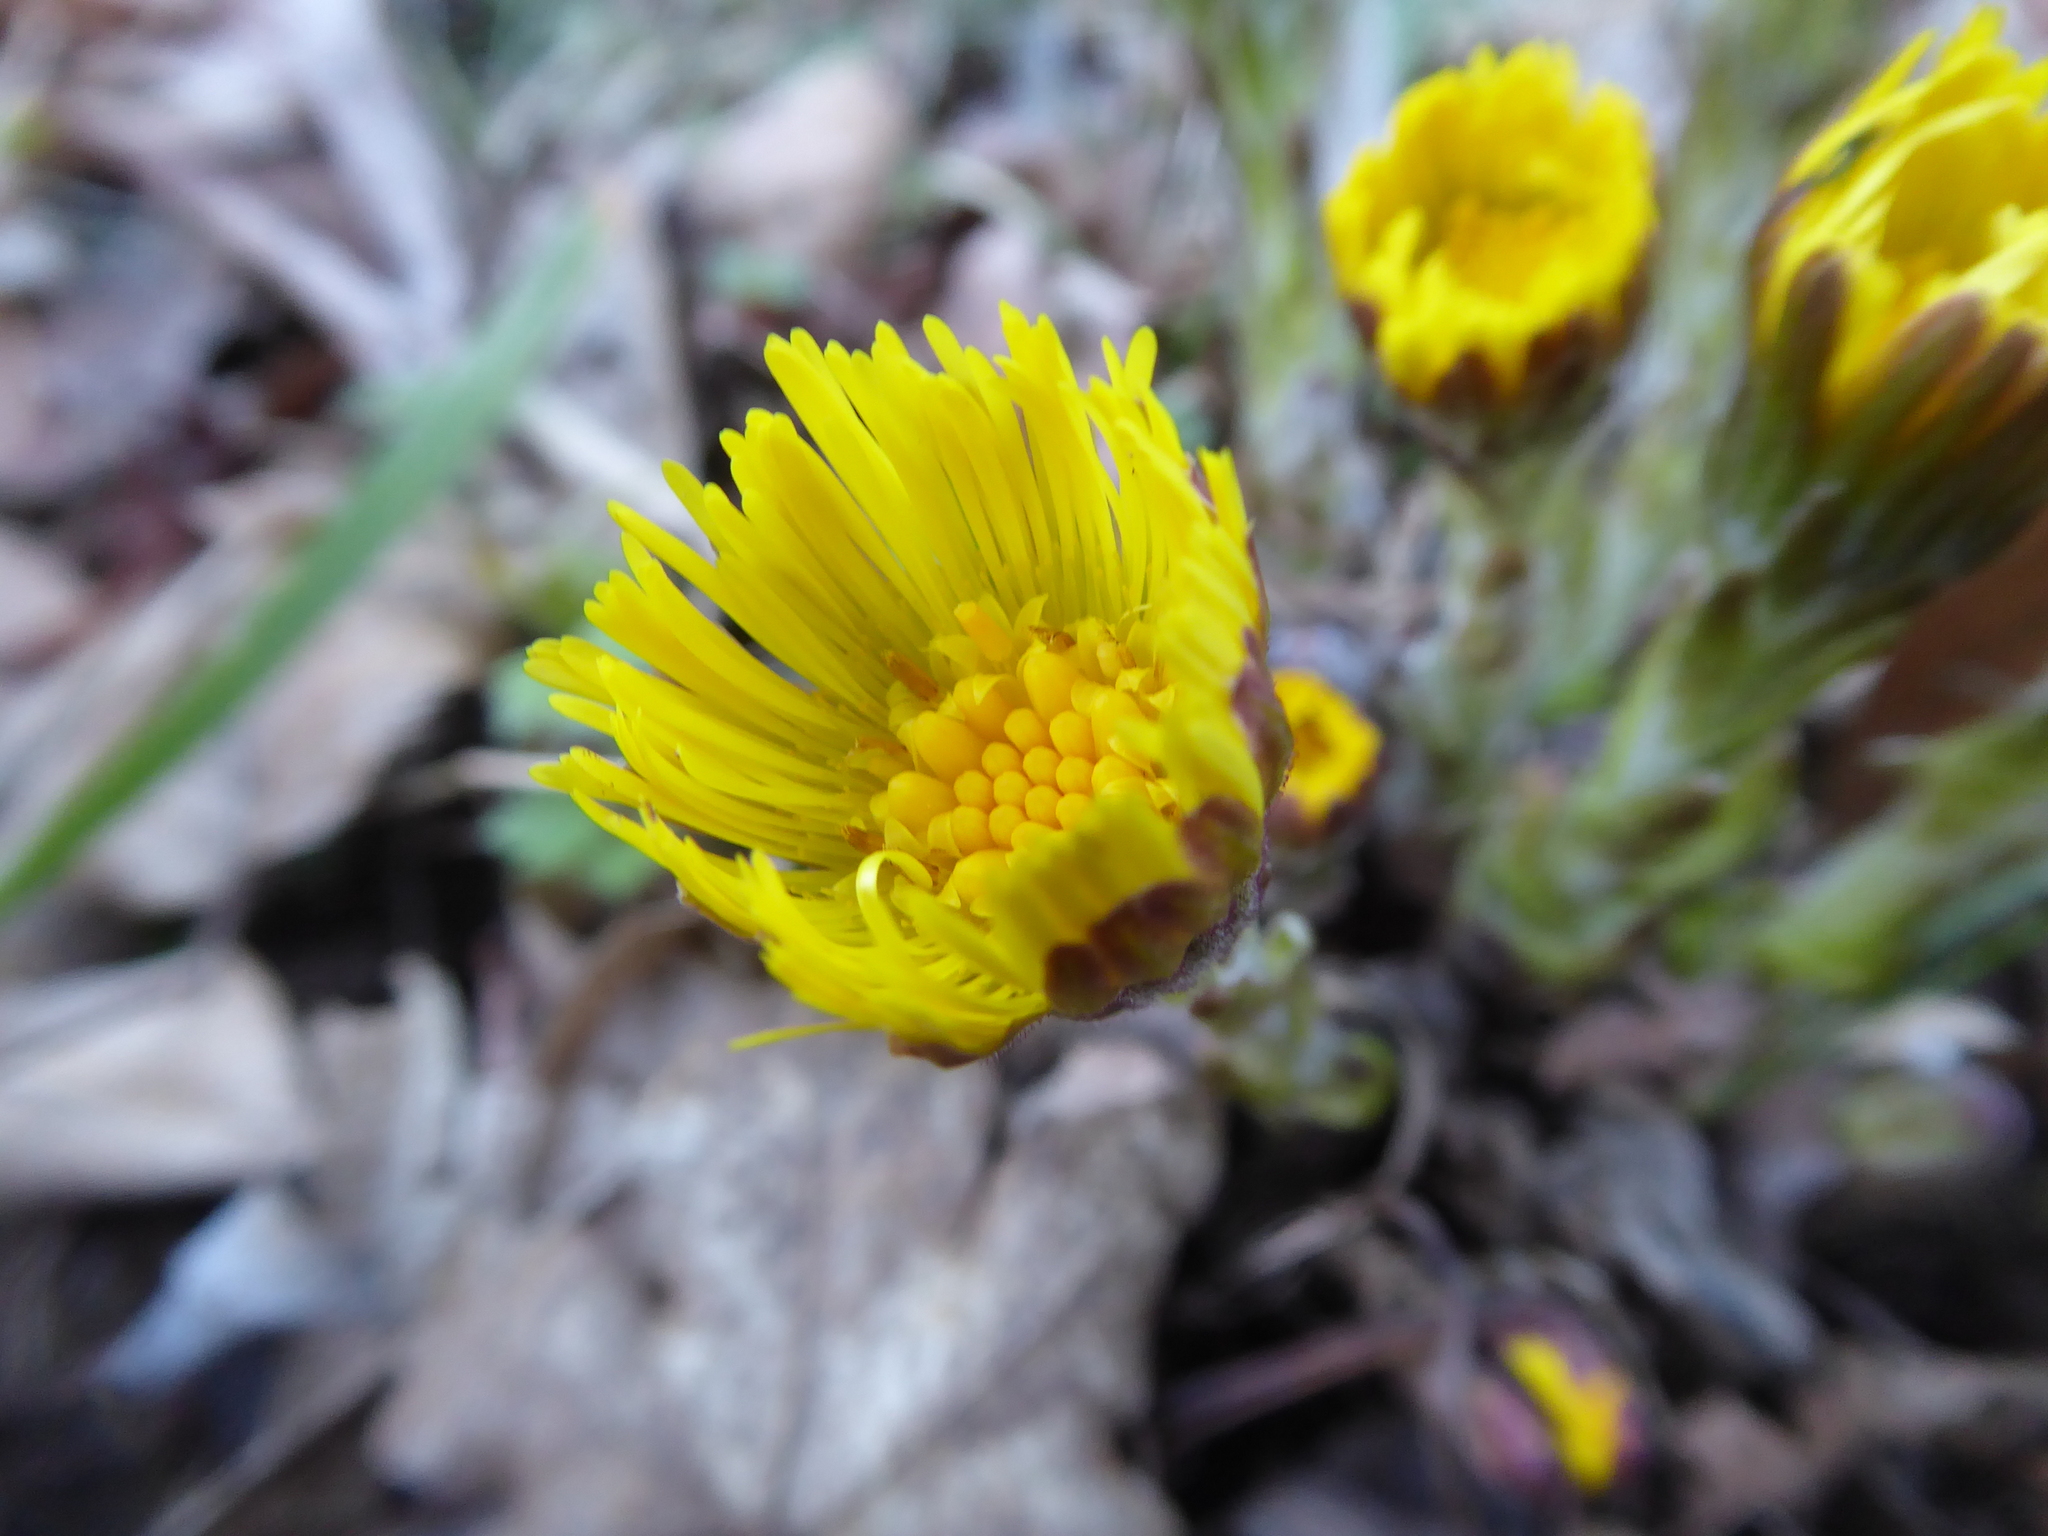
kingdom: Plantae
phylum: Tracheophyta
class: Magnoliopsida
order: Asterales
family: Asteraceae
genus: Tussilago
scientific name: Tussilago farfara
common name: Coltsfoot
